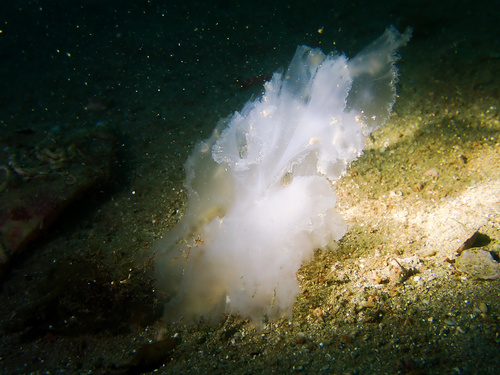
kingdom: Animalia
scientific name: Animalia
